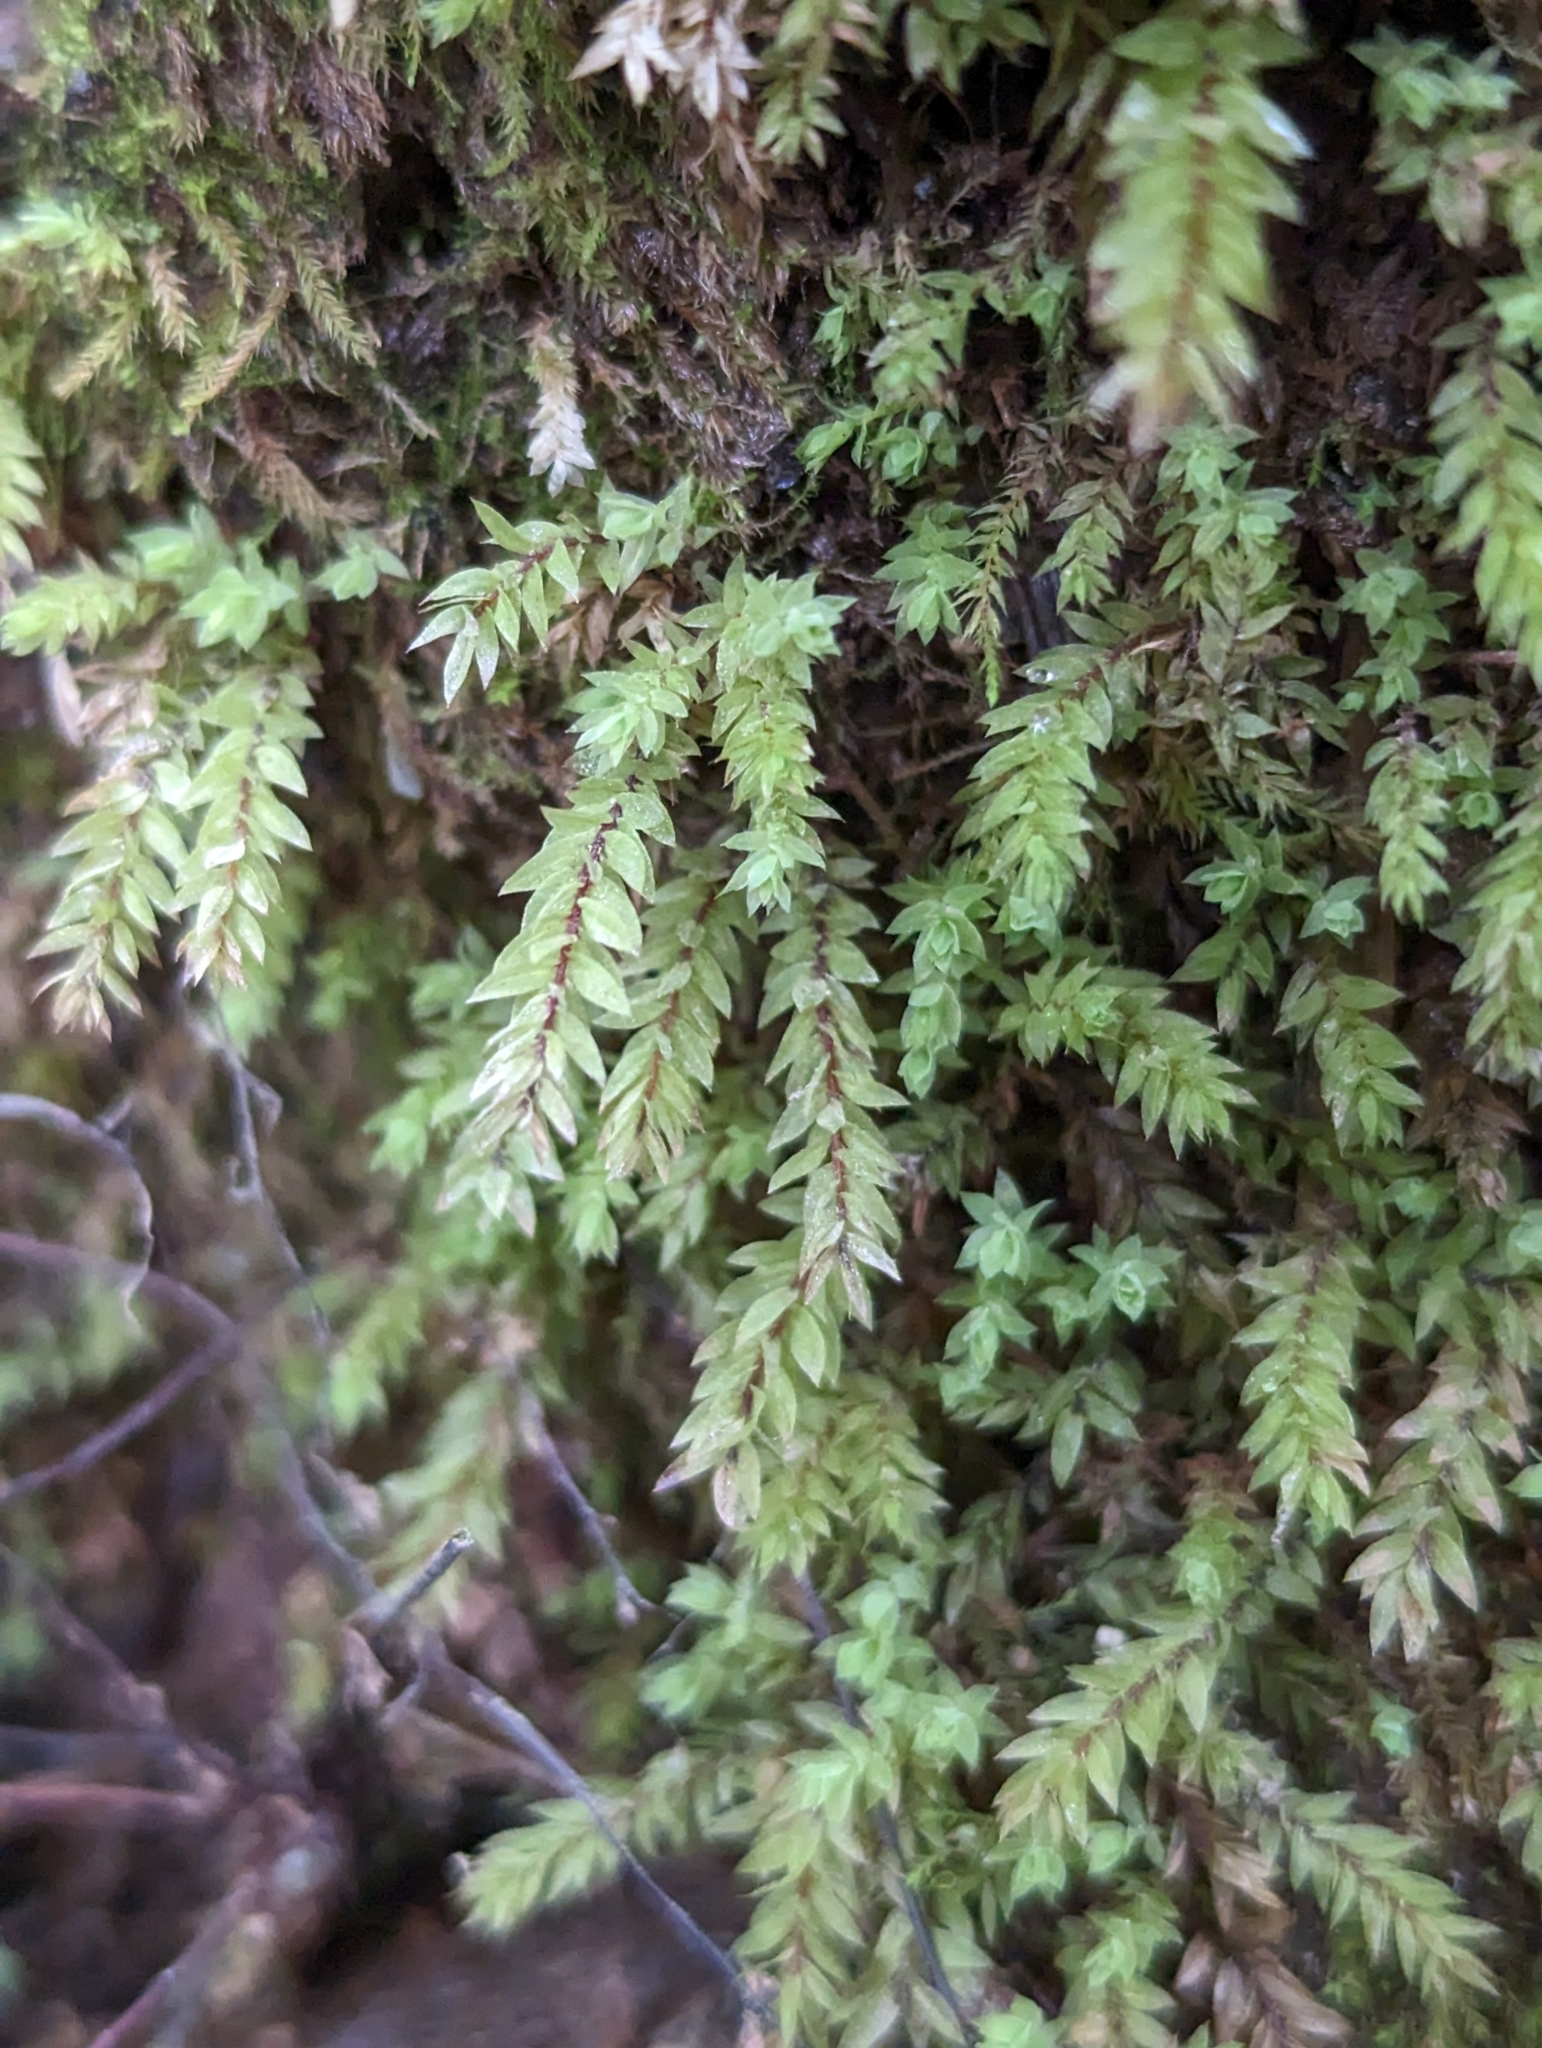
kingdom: Plantae
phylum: Bryophyta
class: Bryopsida
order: Bryales
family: Mniaceae
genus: Pohlia
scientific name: Pohlia cruda
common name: Opal nodding moss
